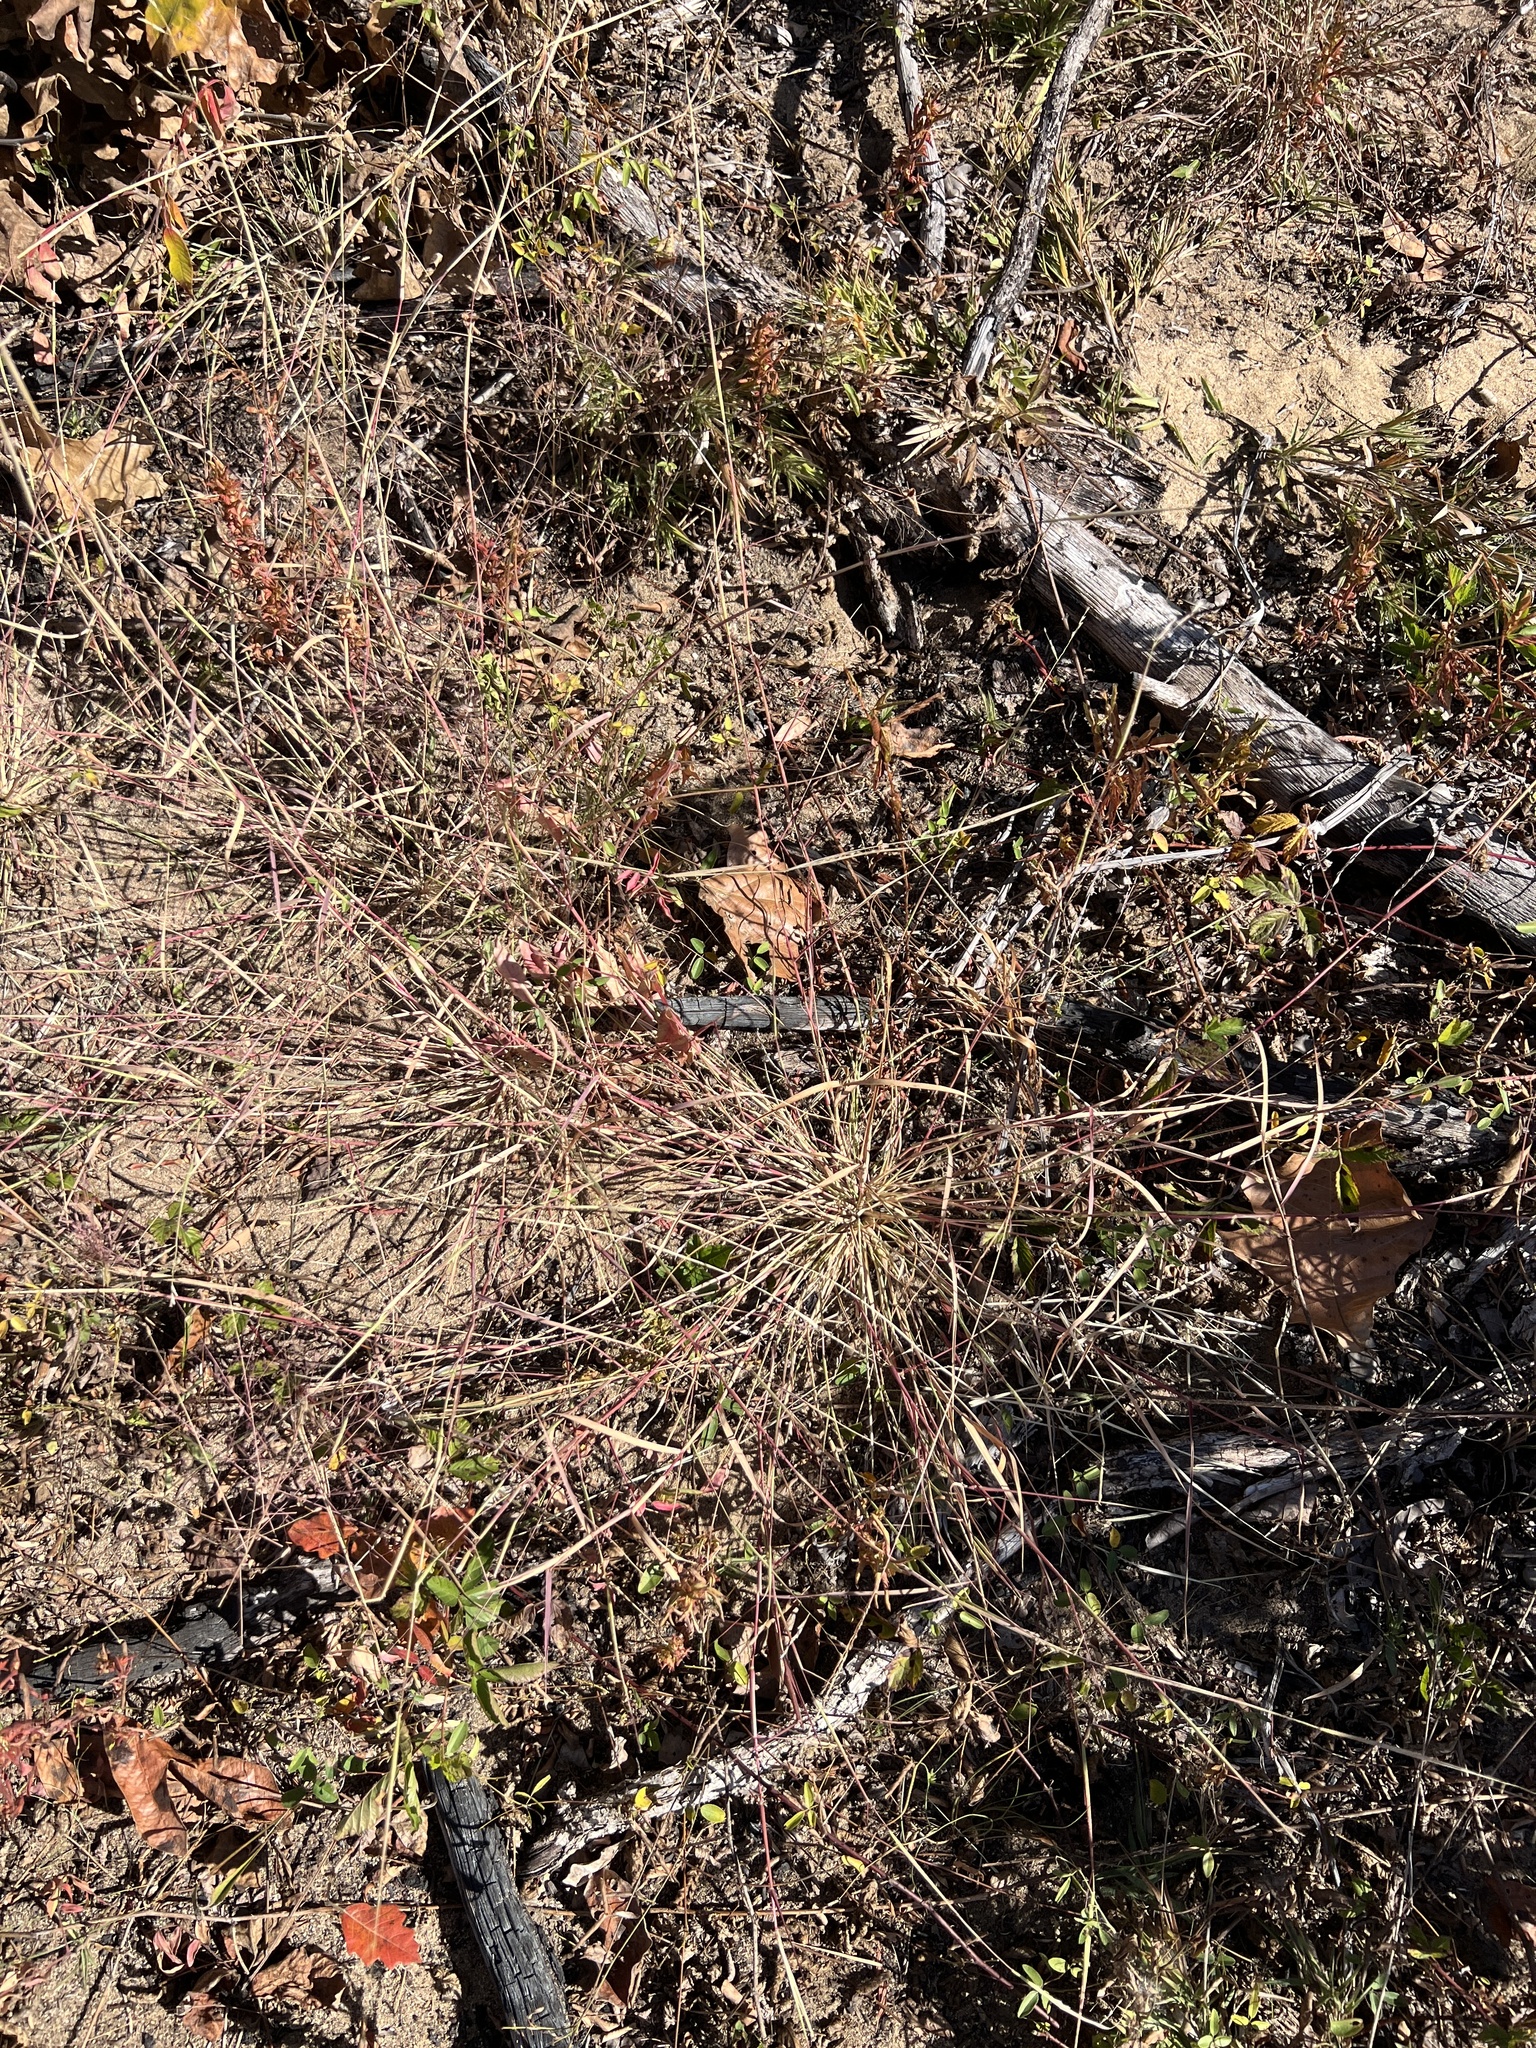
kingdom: Plantae
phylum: Tracheophyta
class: Liliopsida
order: Poales
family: Poaceae
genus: Triplasis
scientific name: Triplasis purpurea
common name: Purple sand grass
